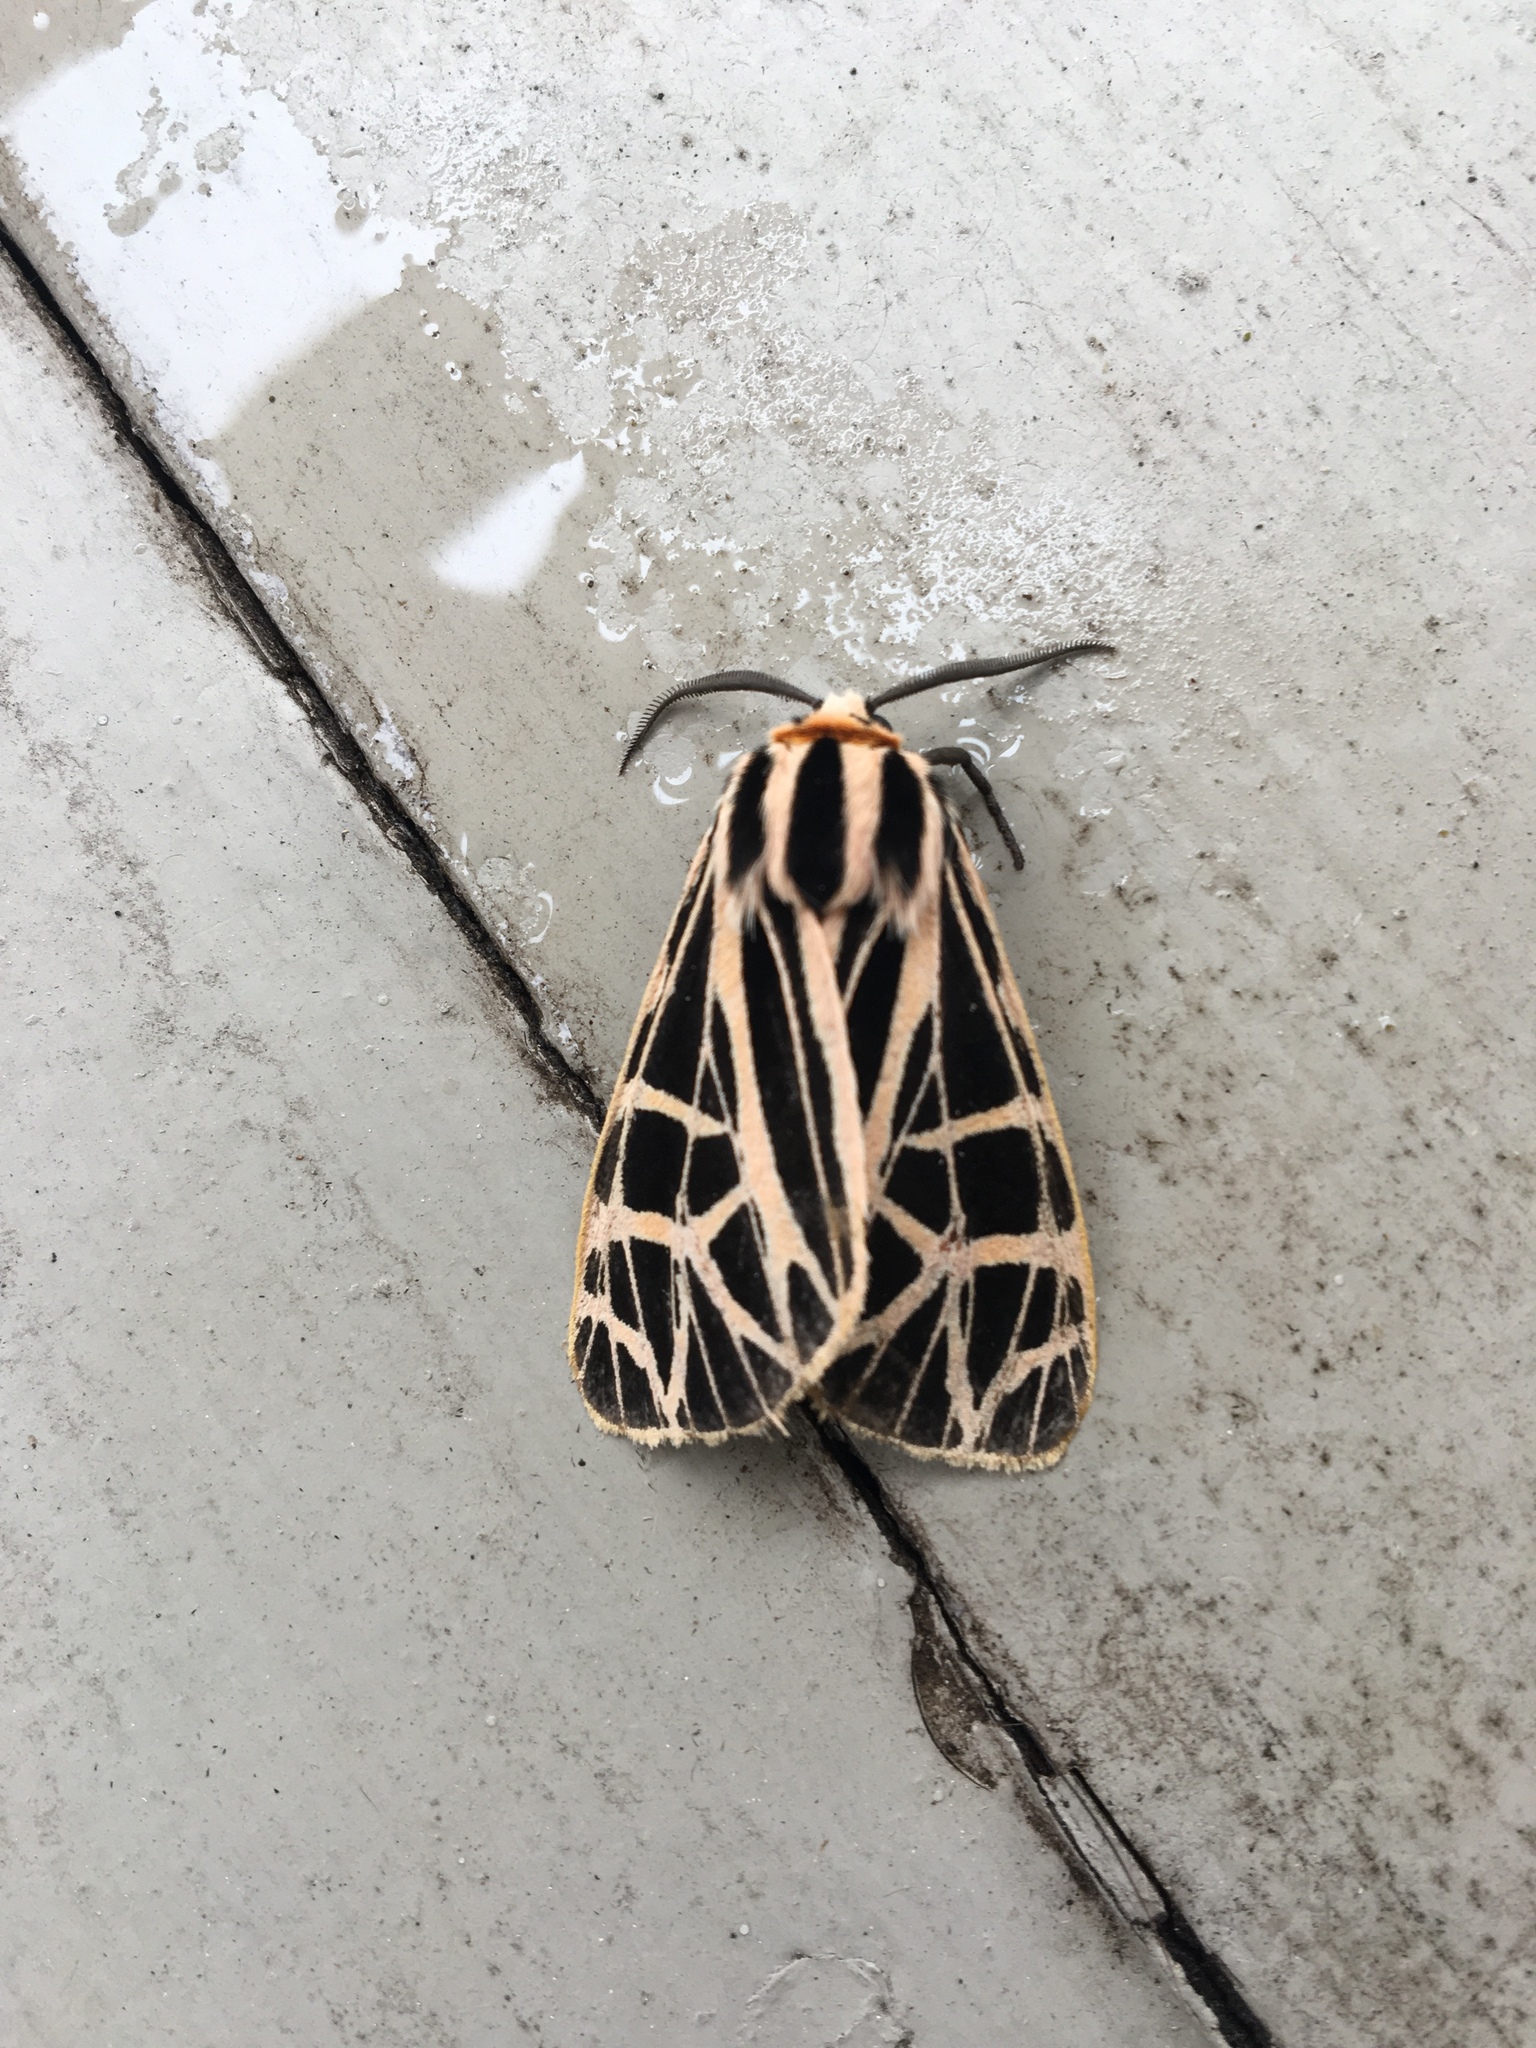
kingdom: Animalia
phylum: Arthropoda
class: Insecta
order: Lepidoptera
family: Erebidae
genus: Grammia
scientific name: Grammia parthenice
